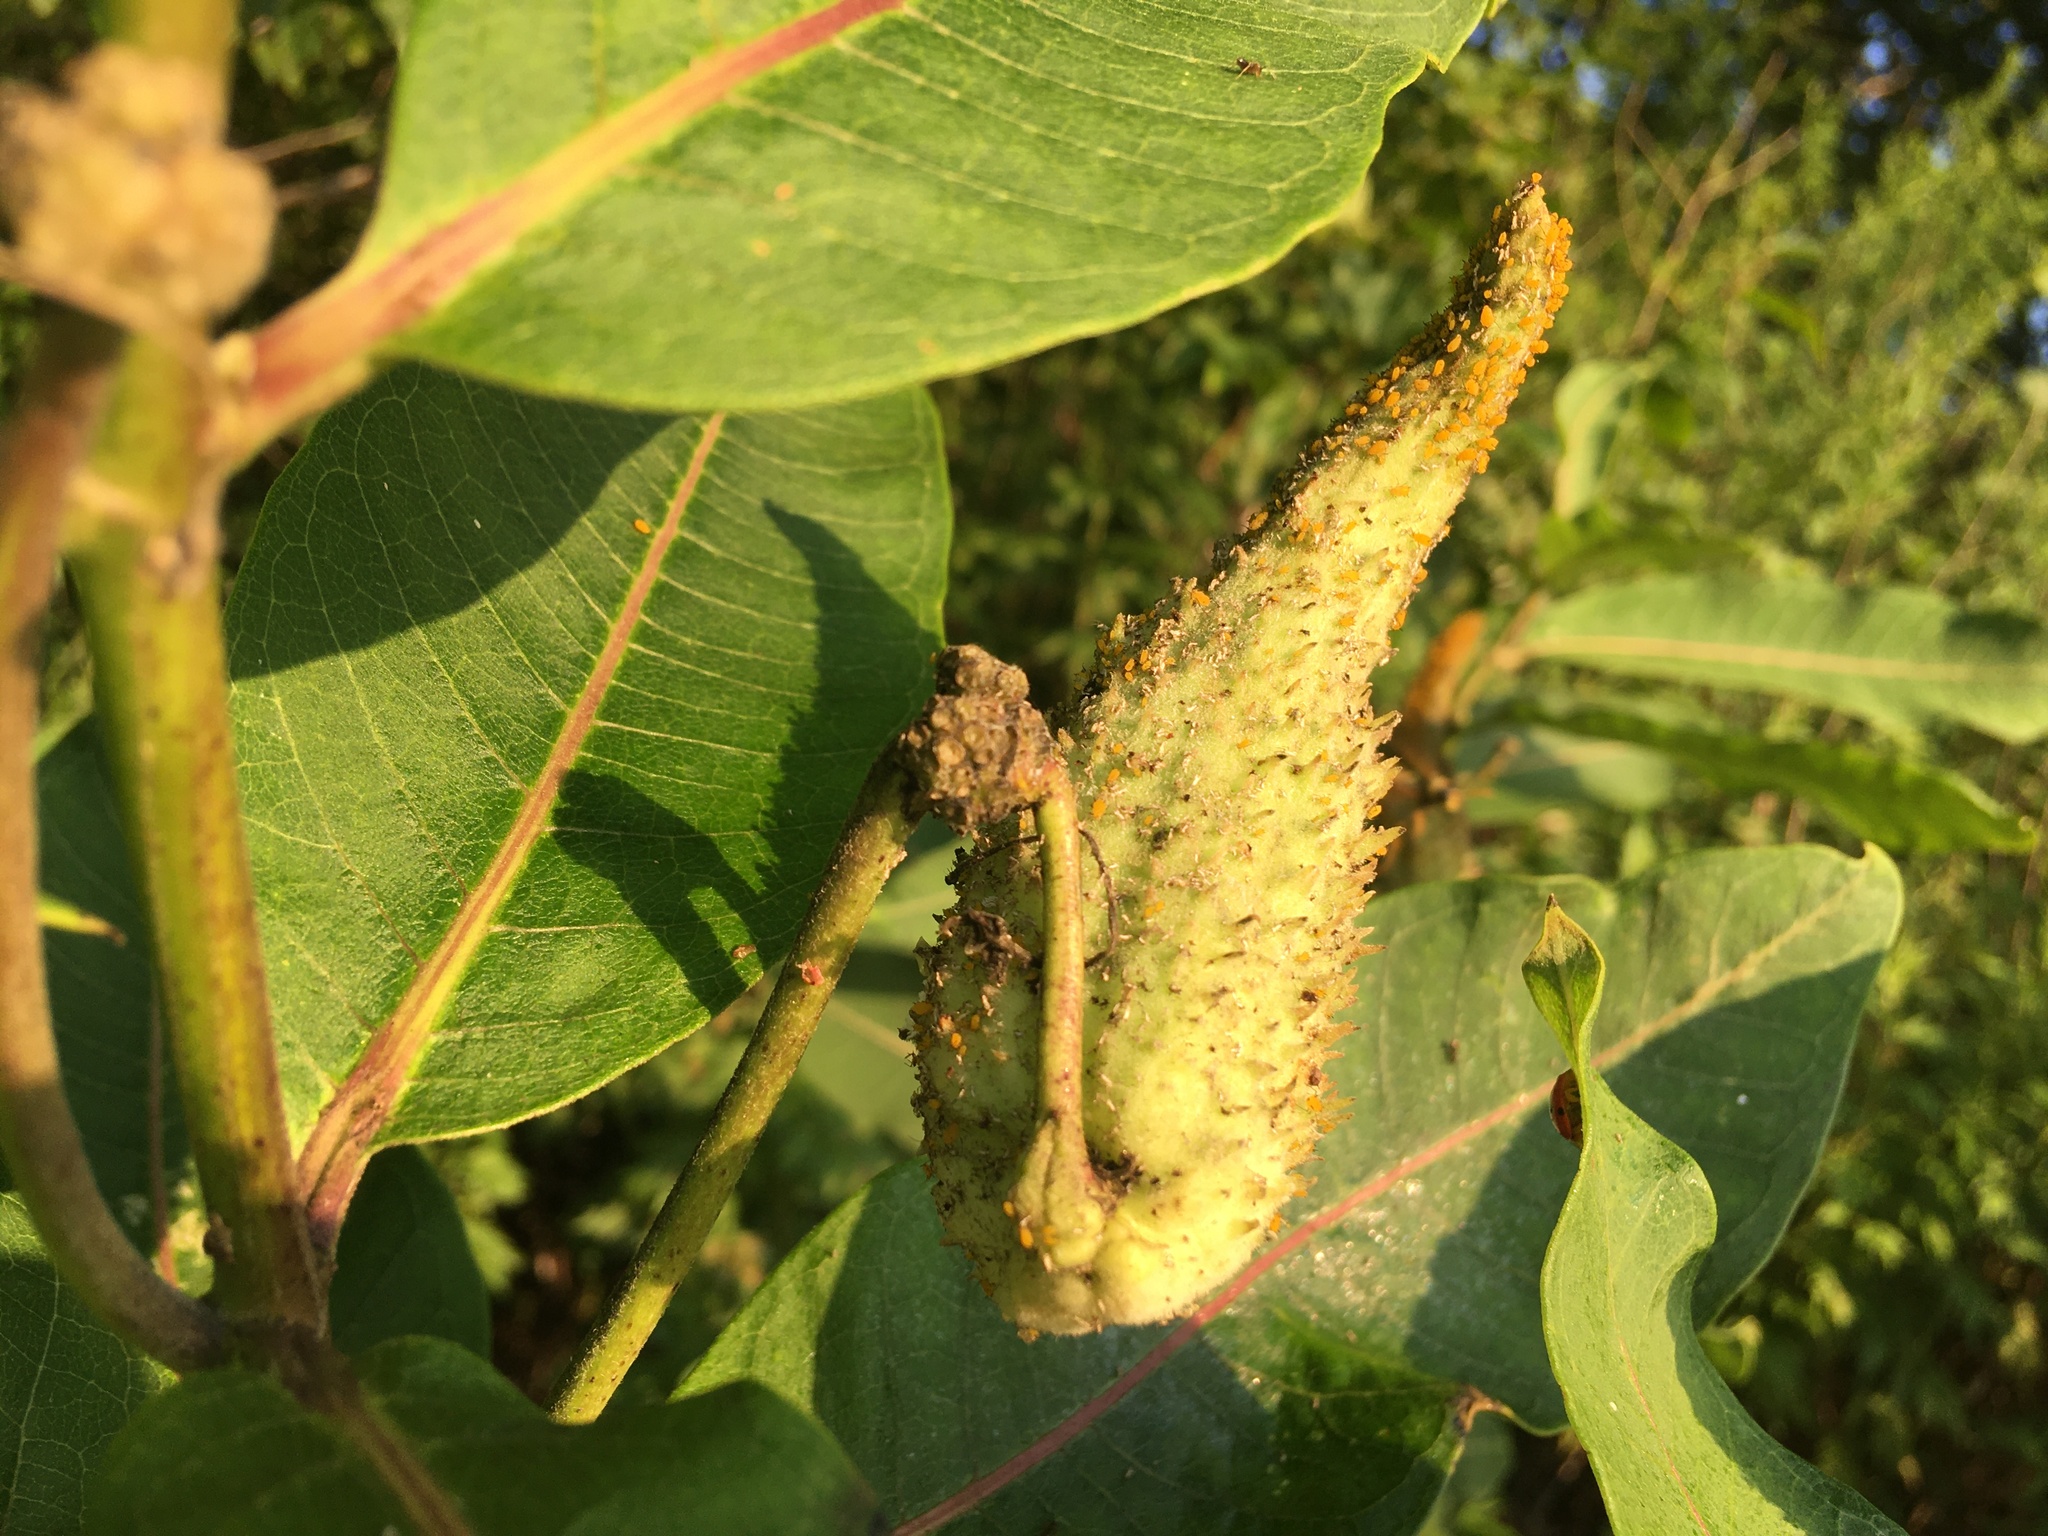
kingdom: Plantae
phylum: Tracheophyta
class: Magnoliopsida
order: Gentianales
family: Apocynaceae
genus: Asclepias
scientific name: Asclepias syriaca
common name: Common milkweed
